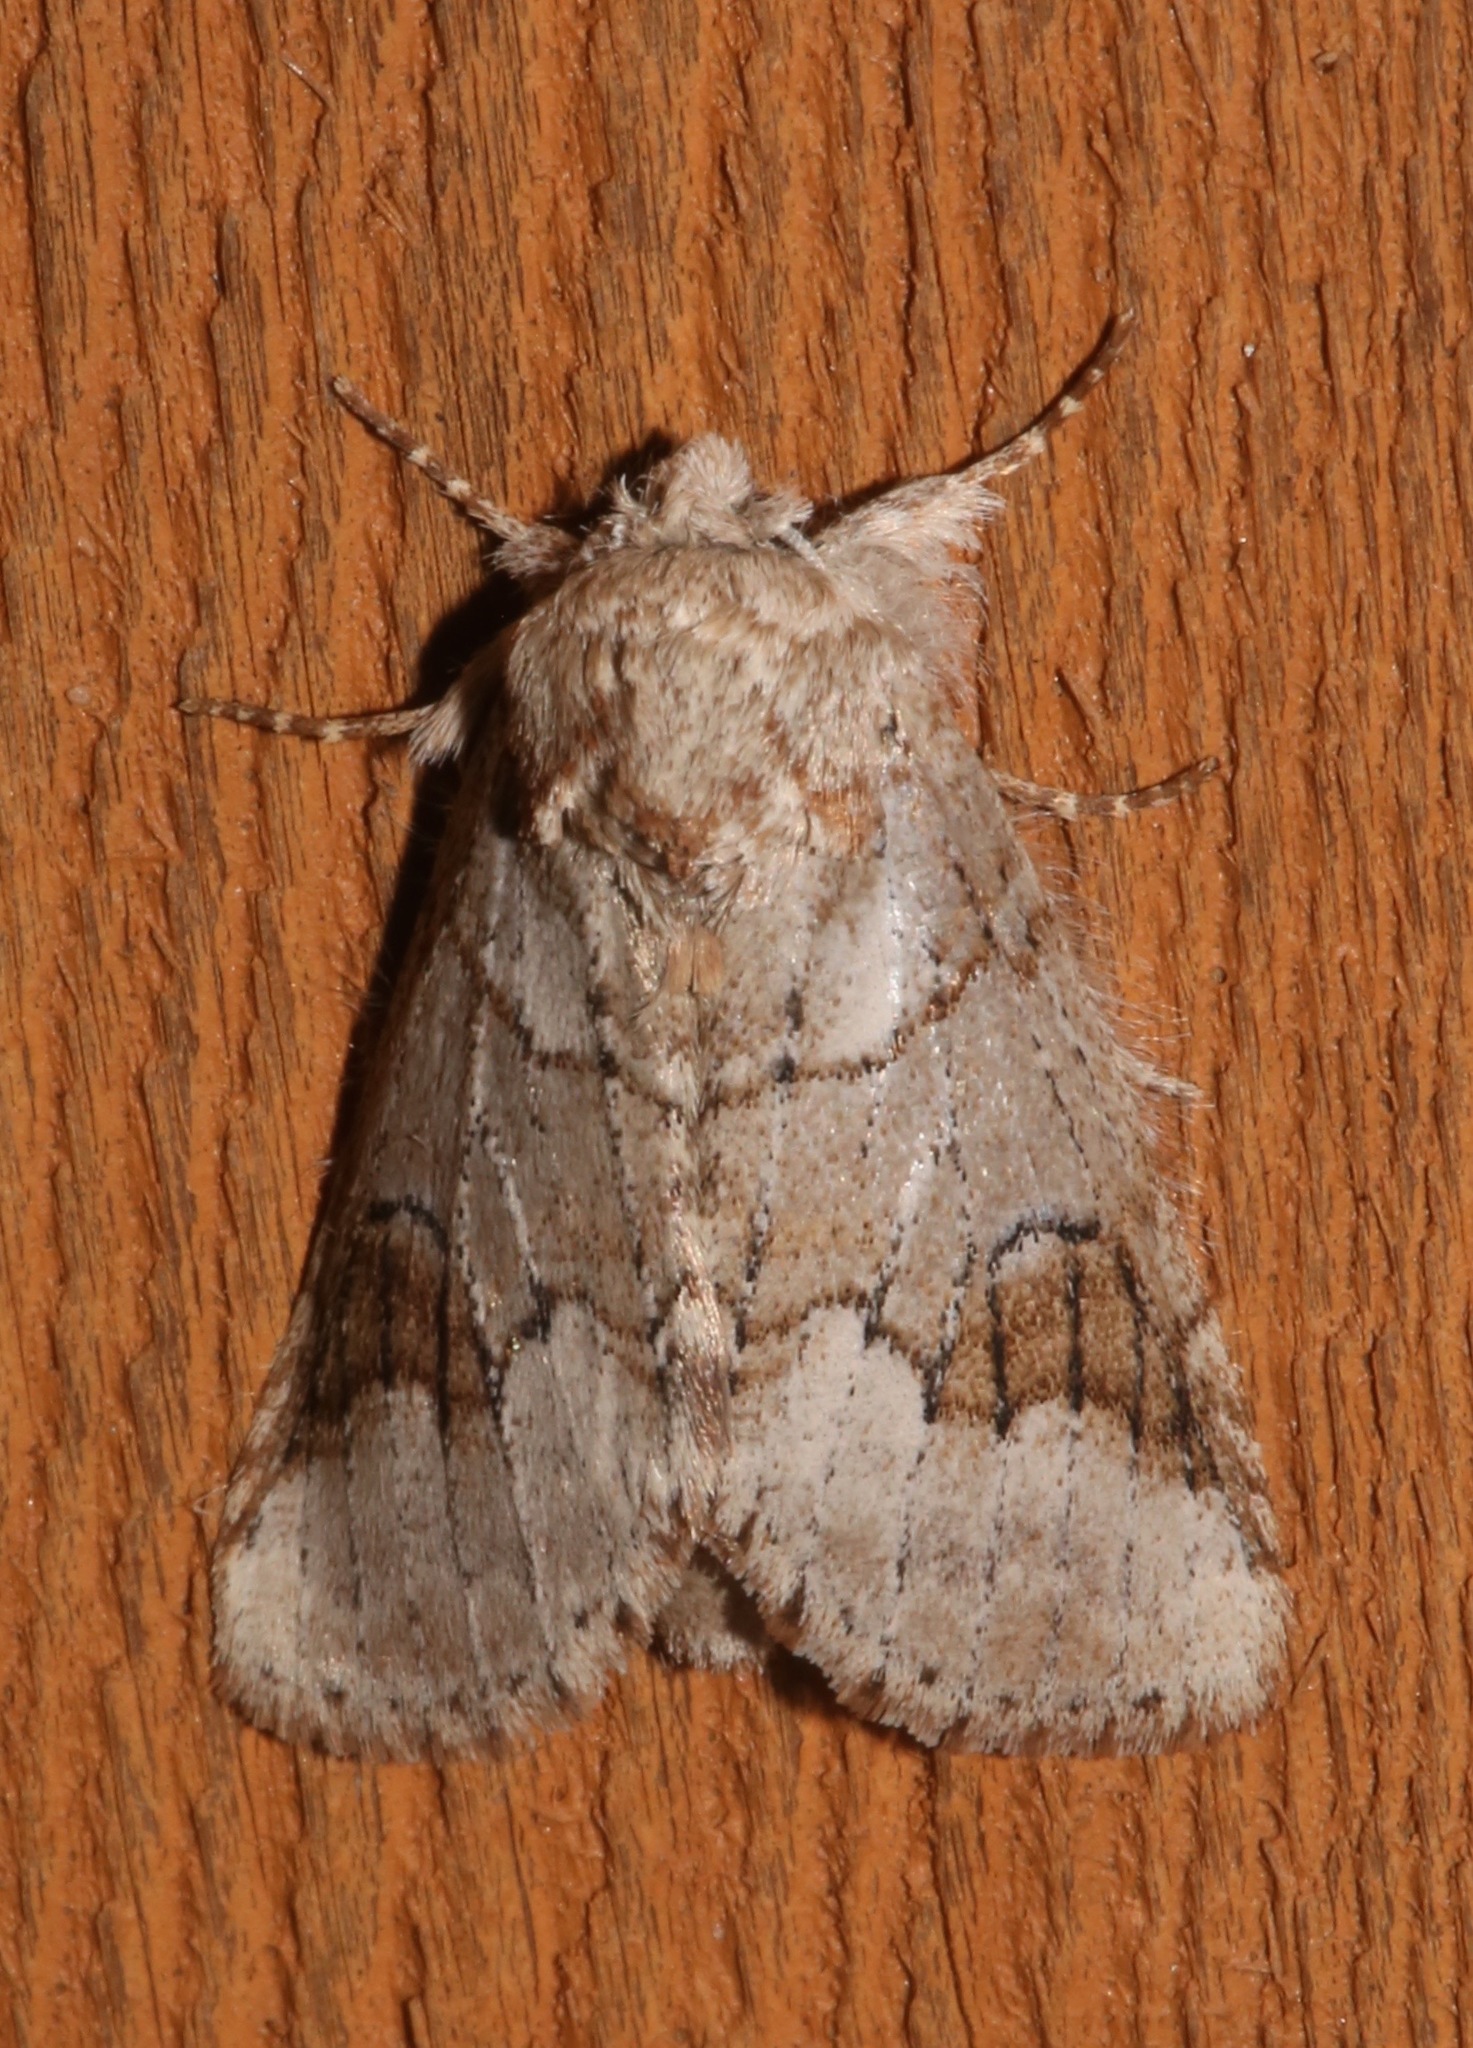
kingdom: Animalia
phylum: Arthropoda
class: Insecta
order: Lepidoptera
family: Notodontidae
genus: Lochmaeus
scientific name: Lochmaeus bilineata
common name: Double-lined prominent
